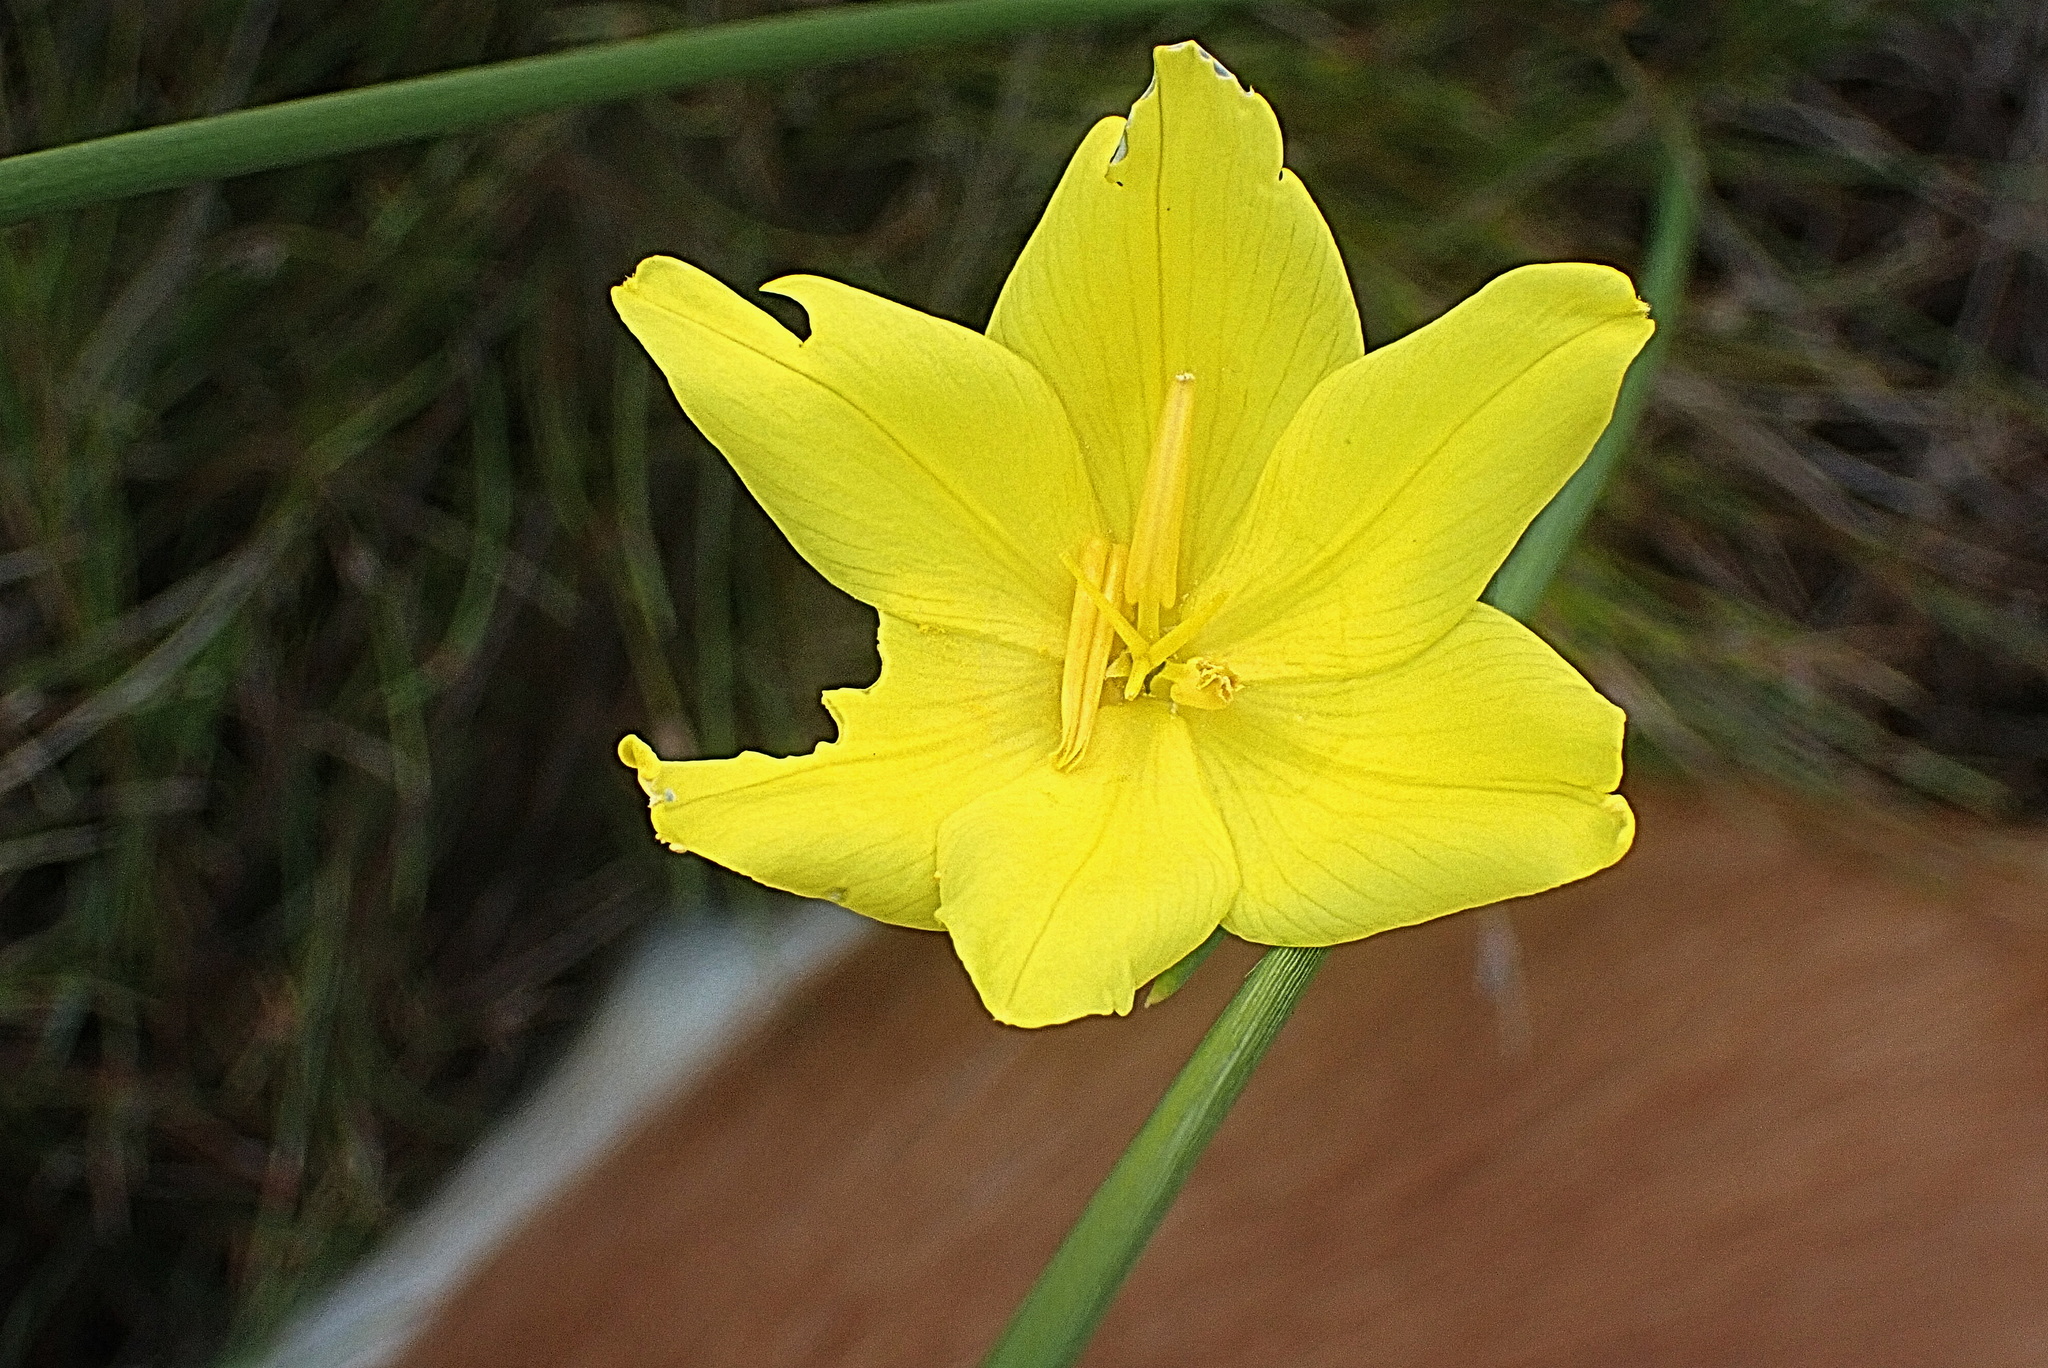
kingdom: Plantae
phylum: Tracheophyta
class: Liliopsida
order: Asparagales
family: Iridaceae
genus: Bobartia
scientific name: Bobartia aphylla
